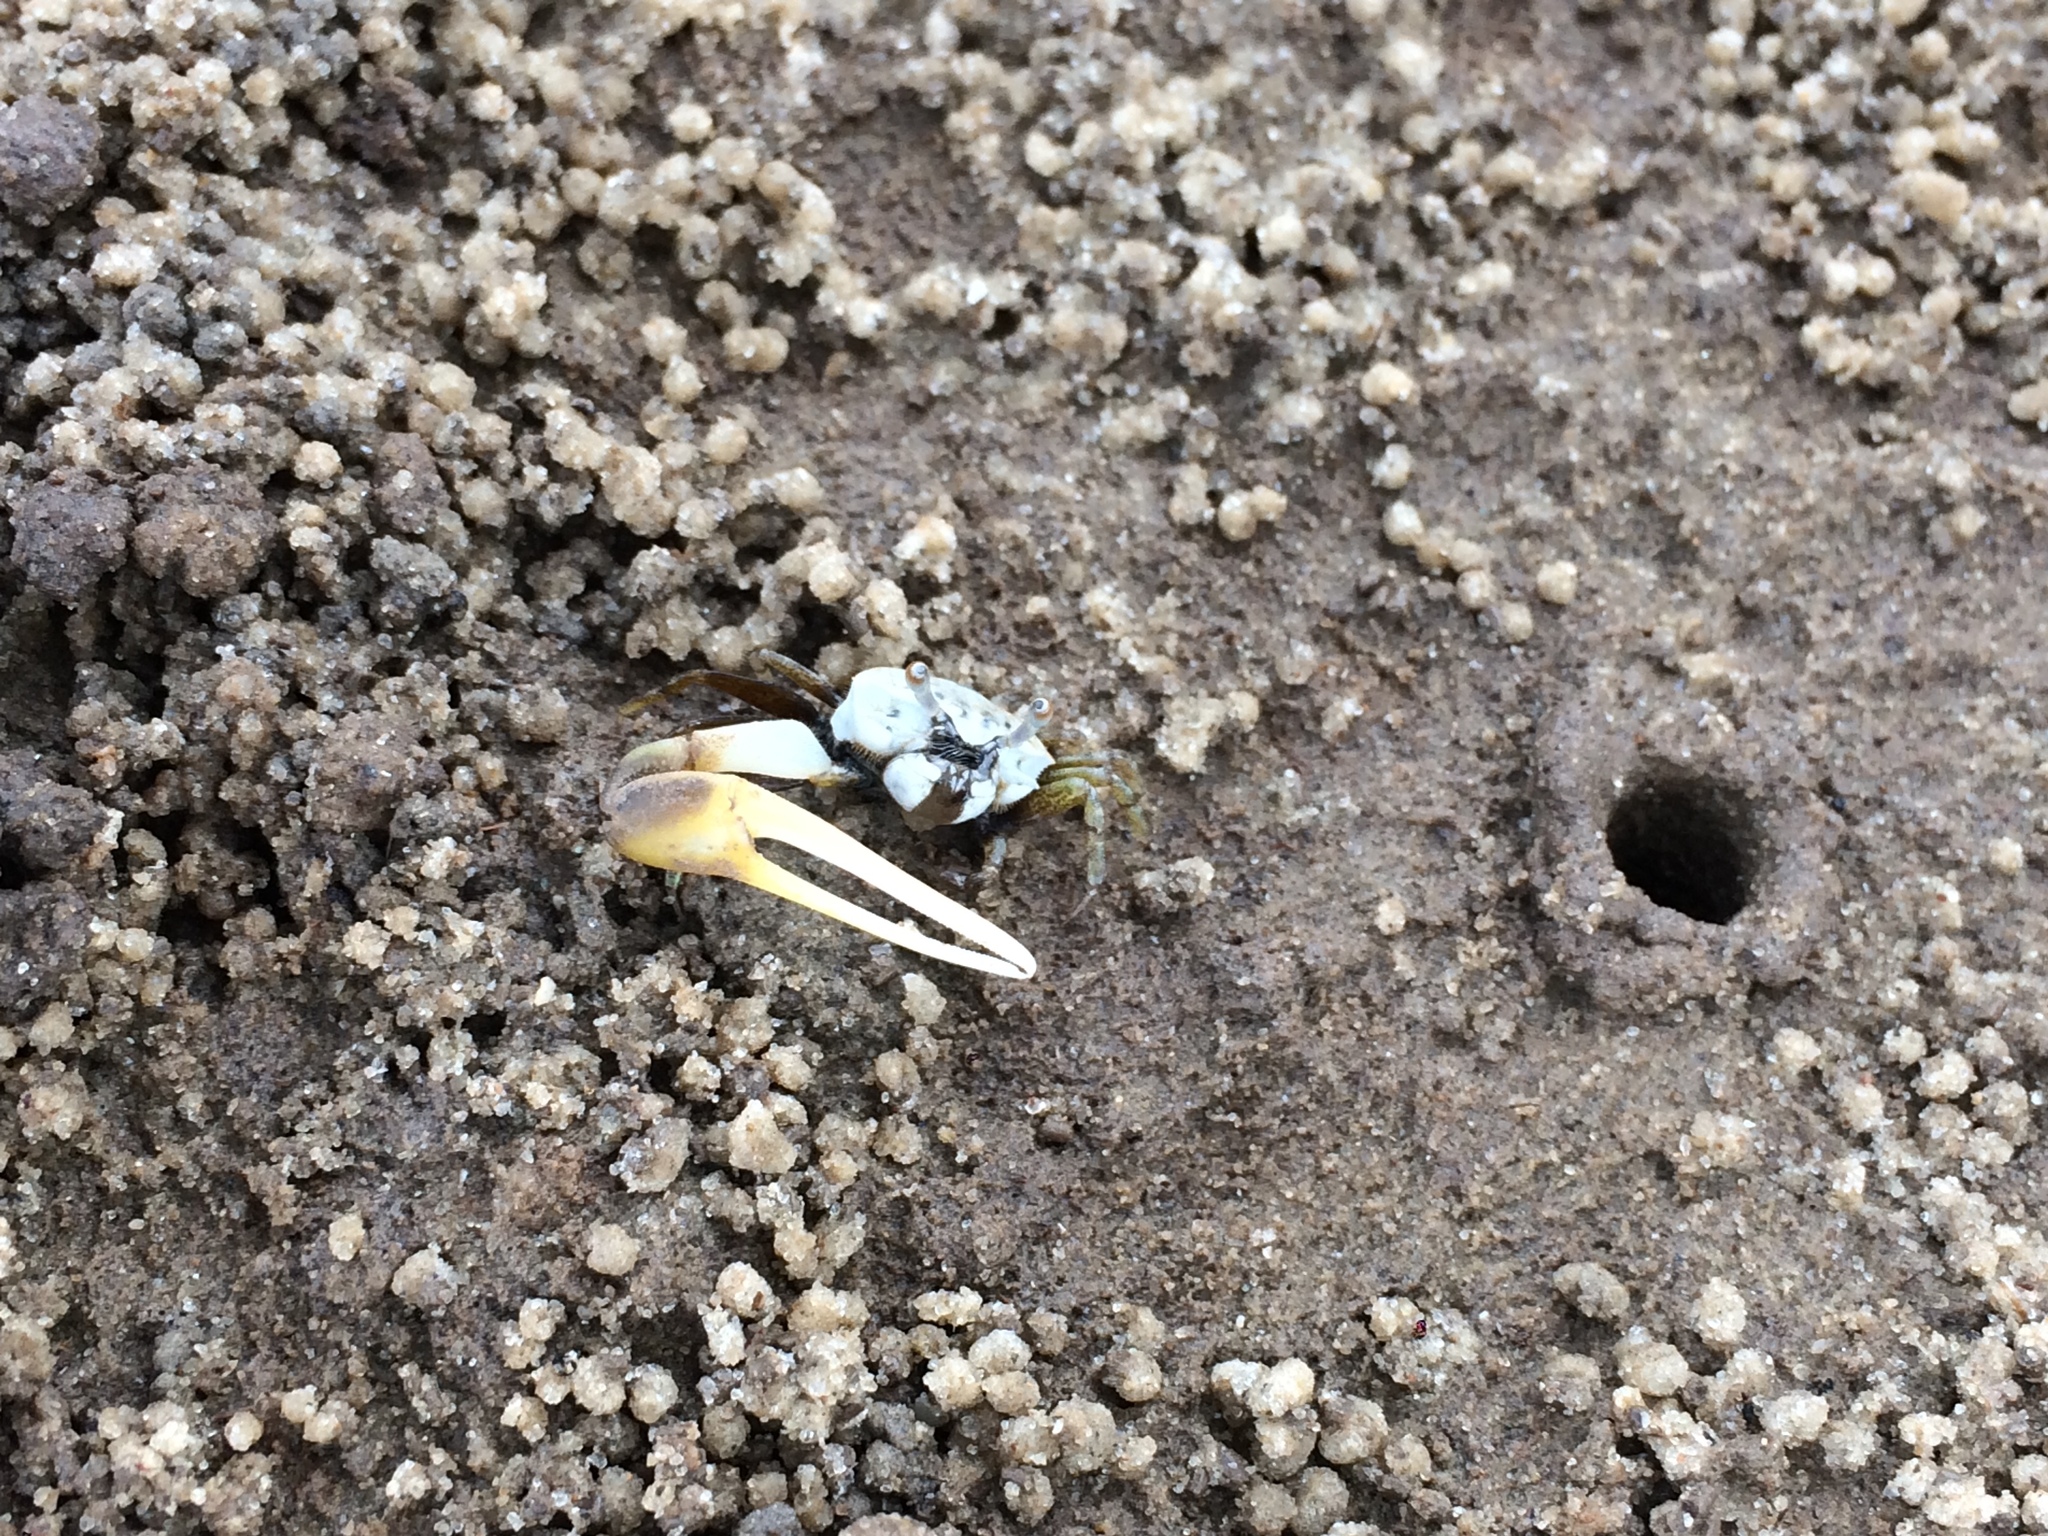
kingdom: Animalia
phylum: Arthropoda
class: Malacostraca
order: Decapoda
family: Ocypodidae
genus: Leptuca
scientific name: Leptuca leptodactyla
